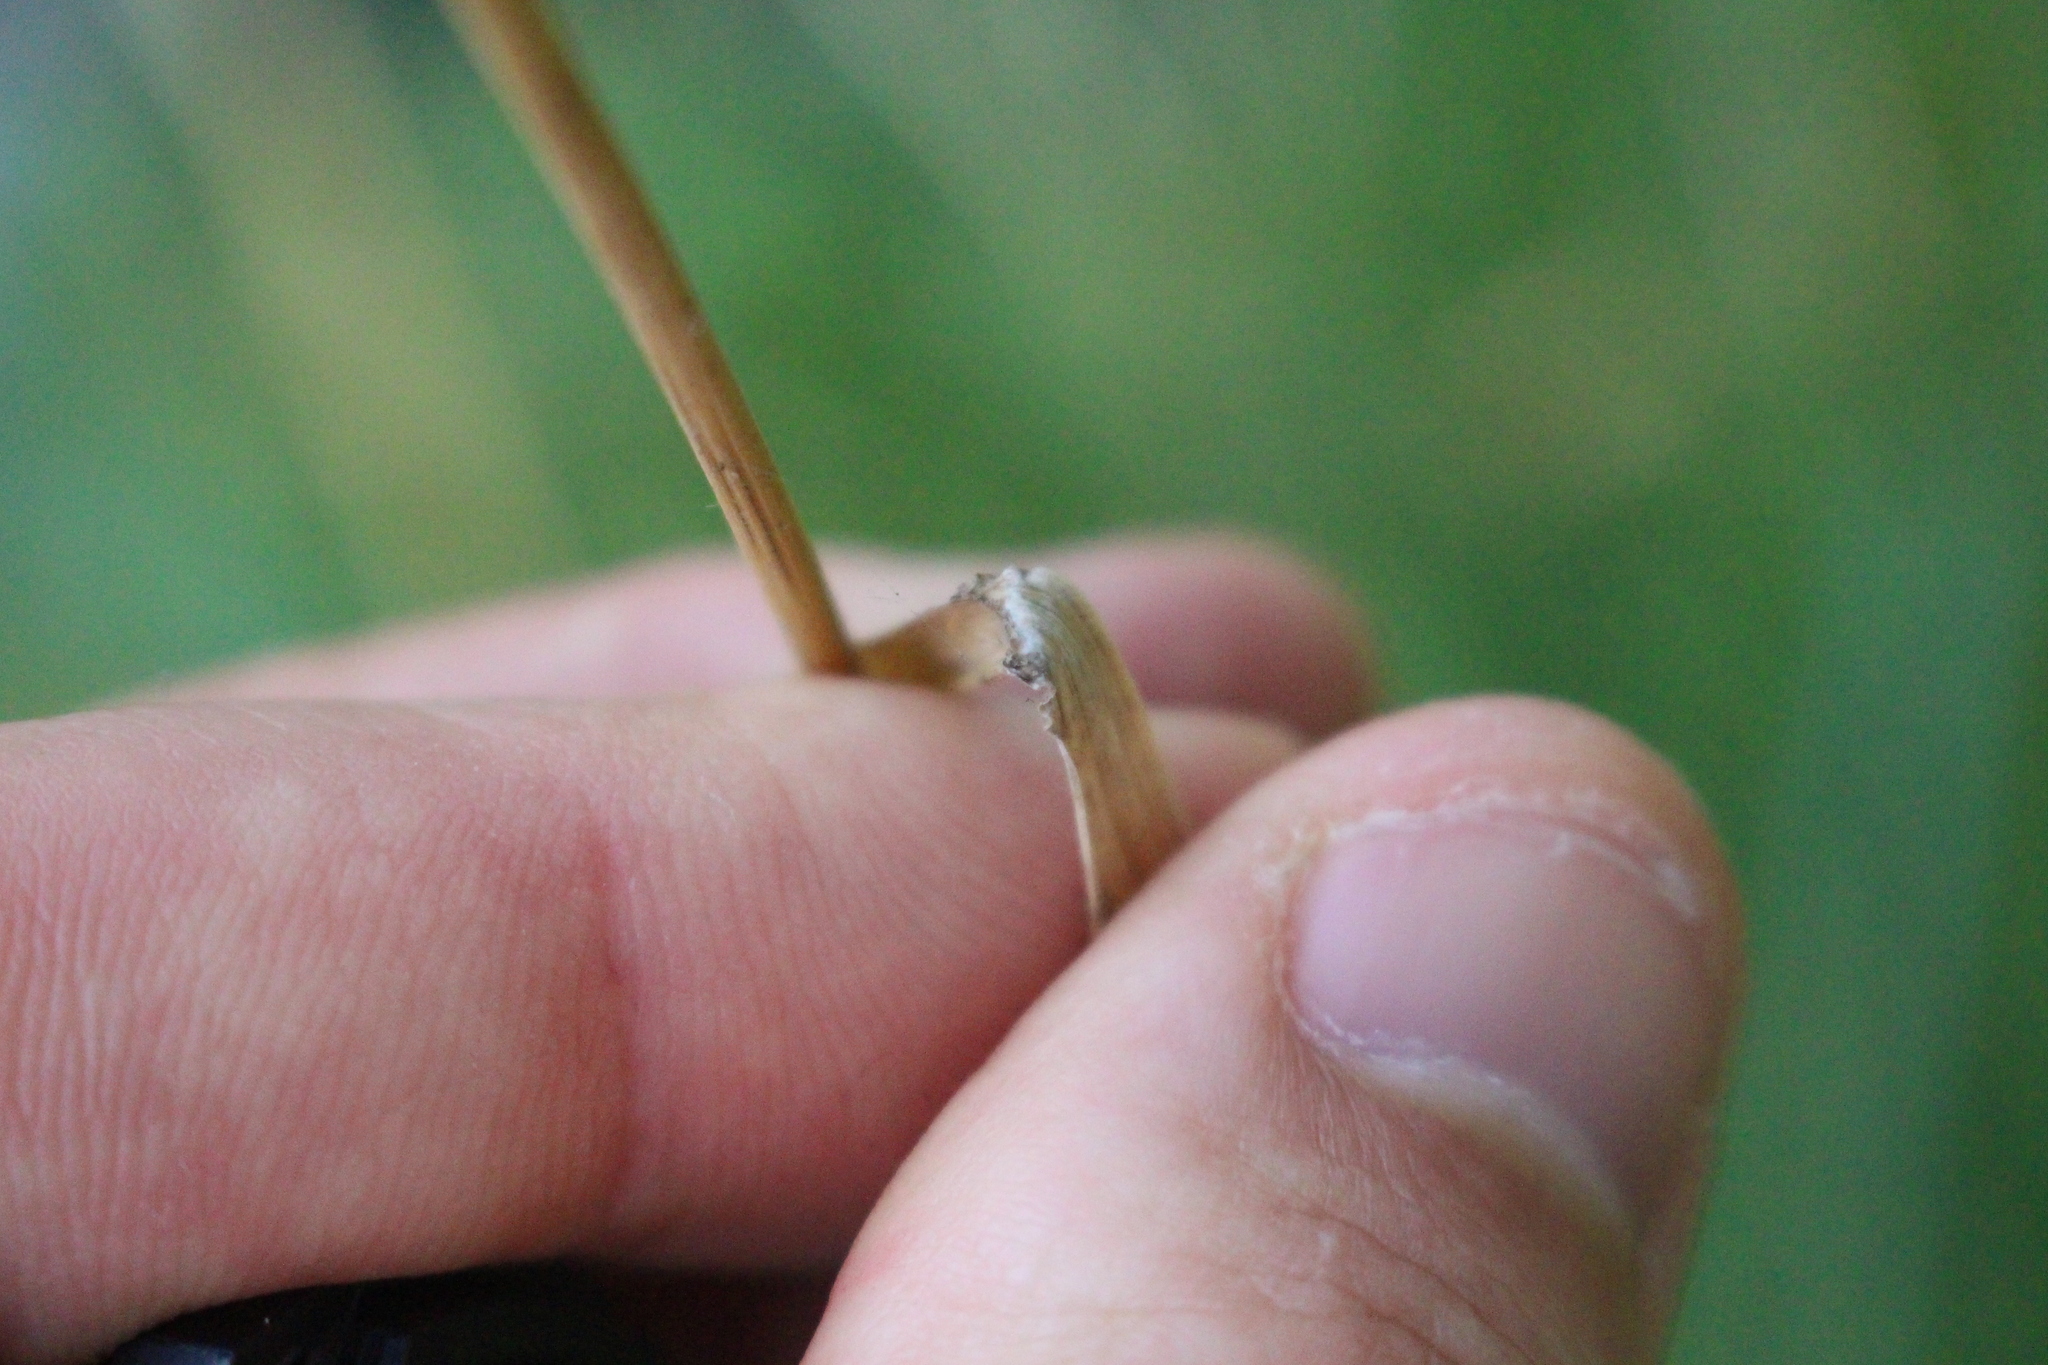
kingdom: Plantae
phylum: Tracheophyta
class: Liliopsida
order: Poales
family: Poaceae
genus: Lolium
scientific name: Lolium arundinaceum
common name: Reed fescue
